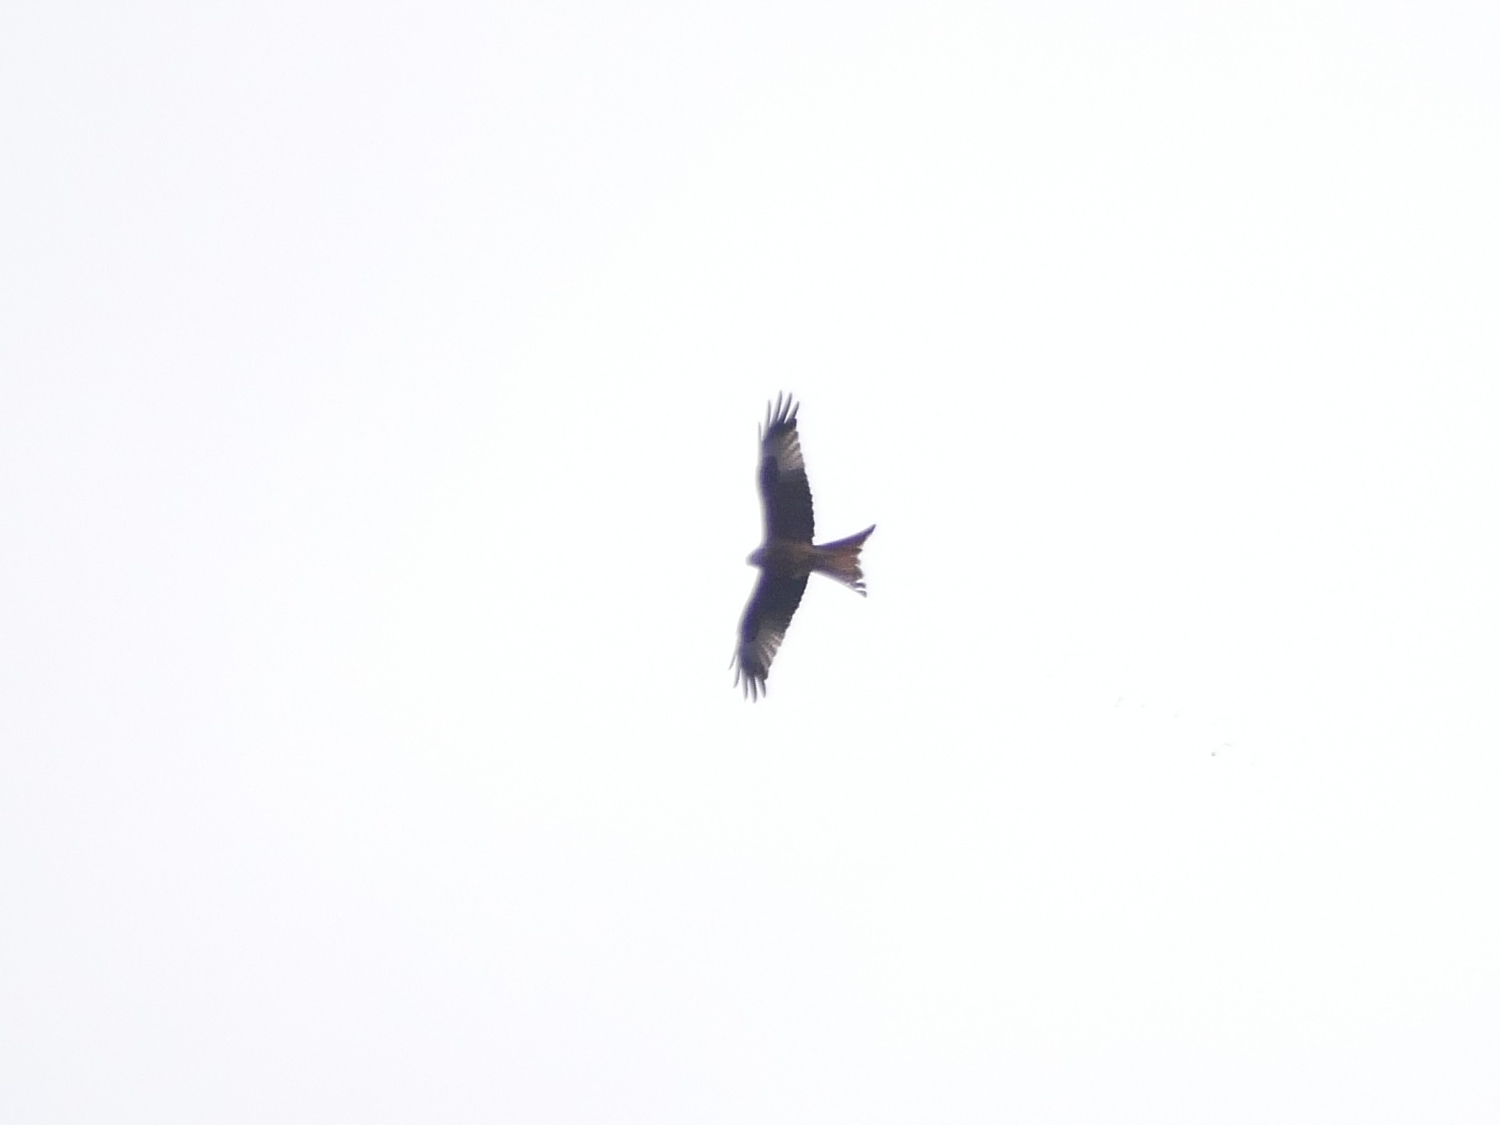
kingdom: Animalia
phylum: Chordata
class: Aves
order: Accipitriformes
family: Accipitridae
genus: Milvus
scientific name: Milvus milvus
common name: Red kite
